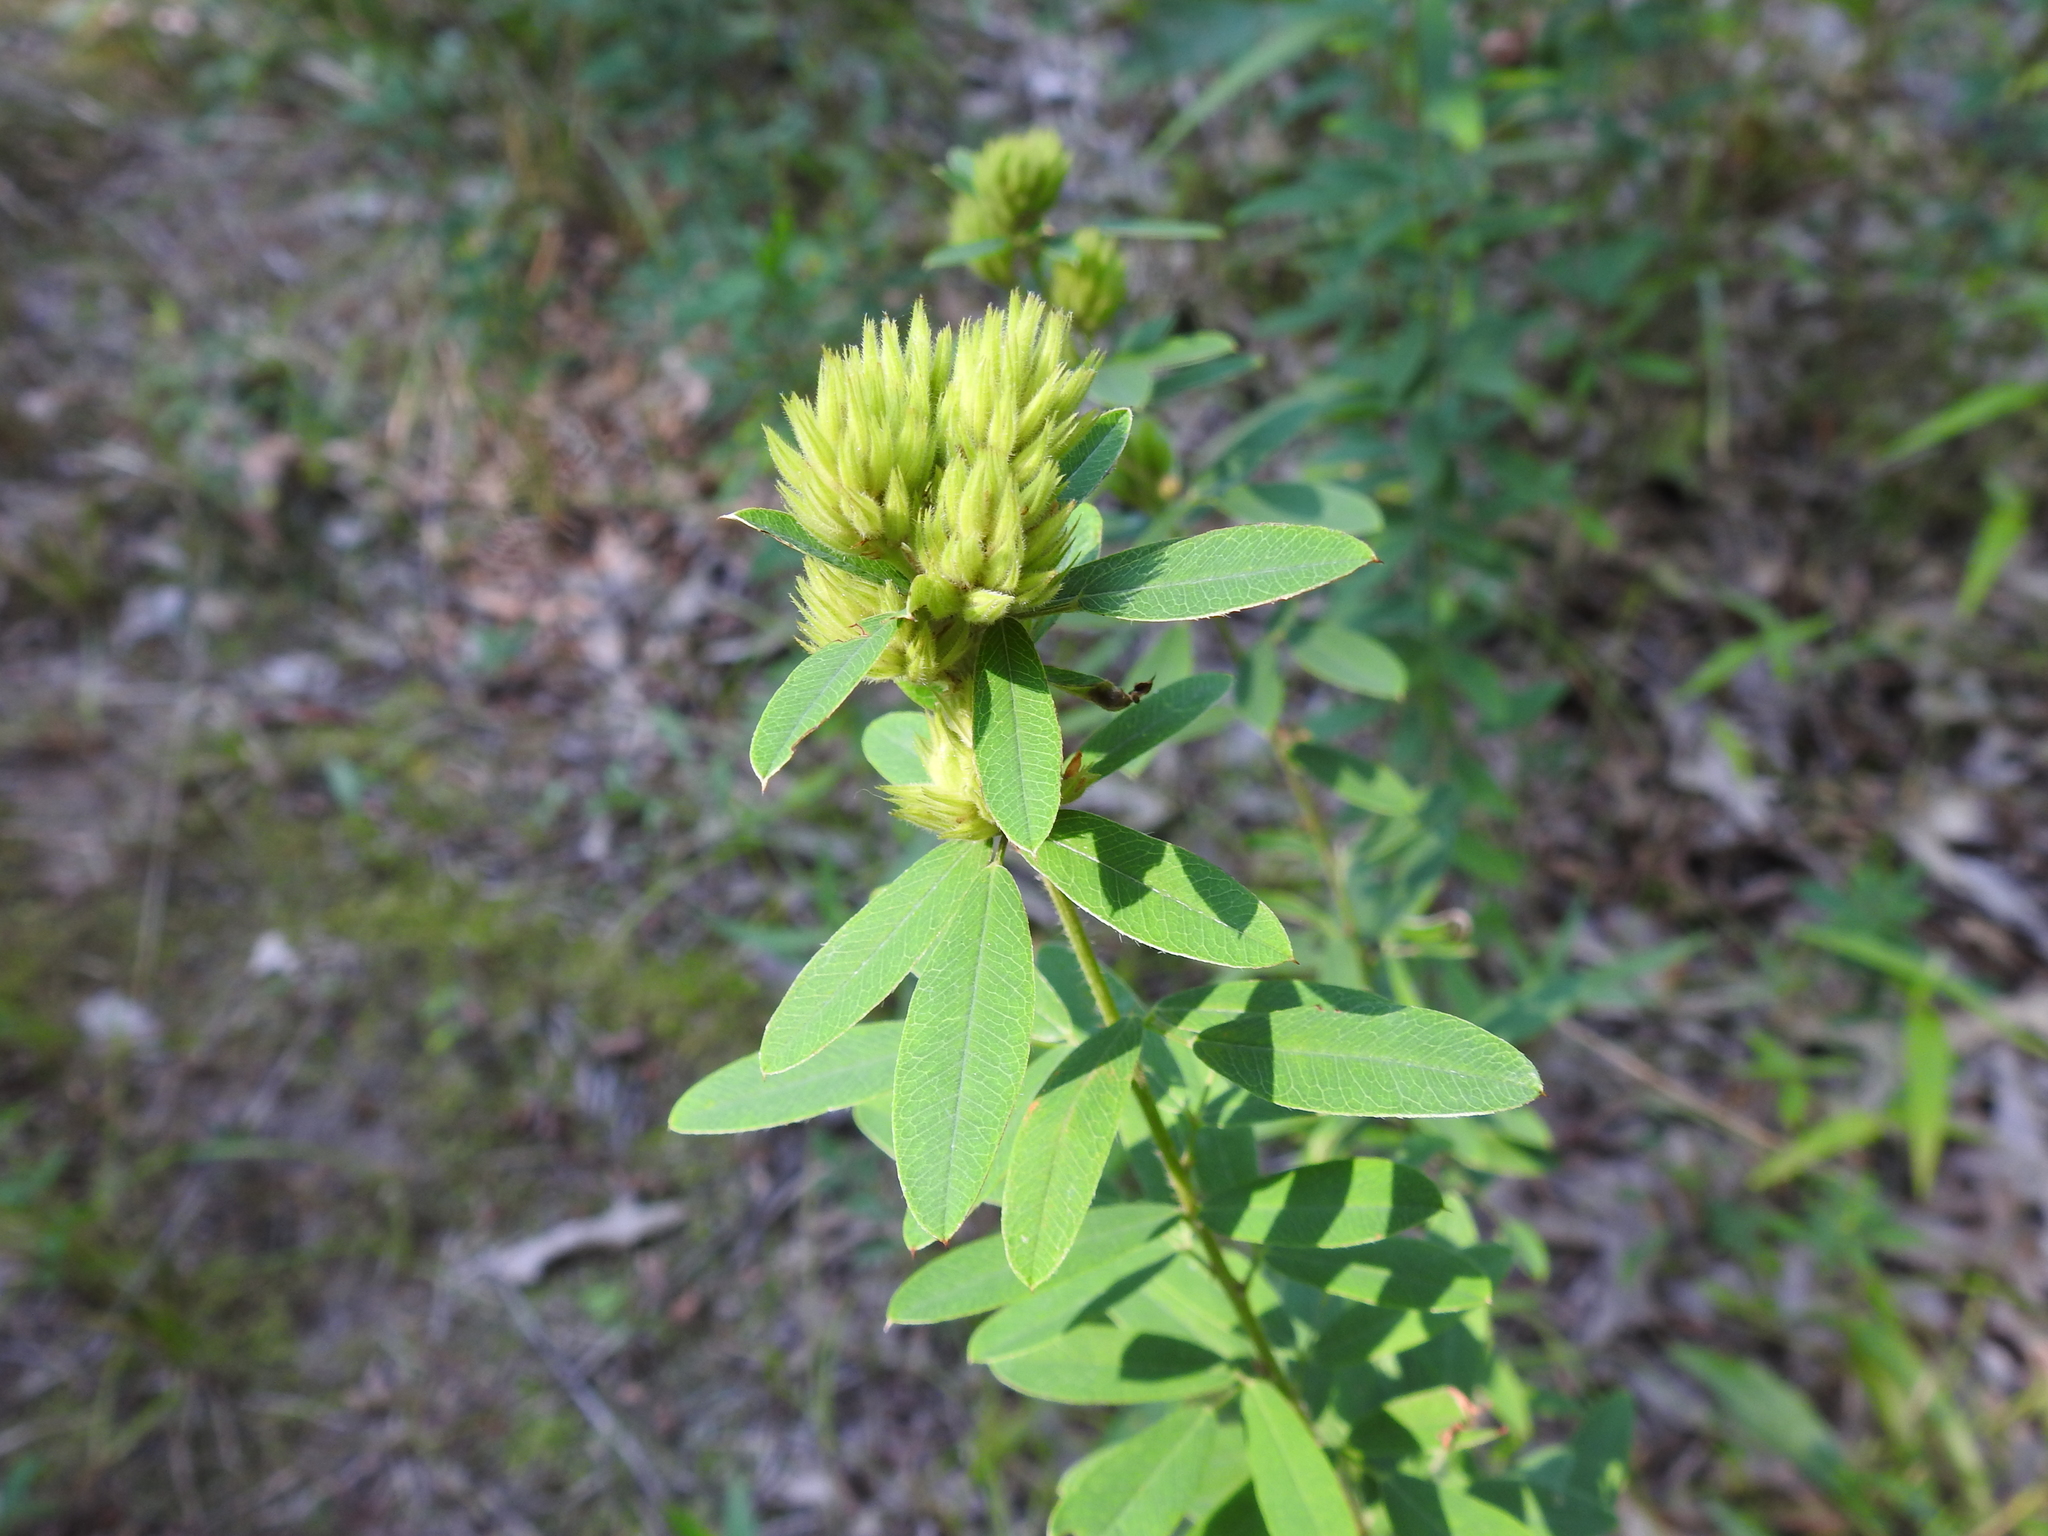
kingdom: Plantae
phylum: Tracheophyta
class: Magnoliopsida
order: Fabales
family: Fabaceae
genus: Lespedeza
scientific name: Lespedeza capitata
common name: Dusty clover
